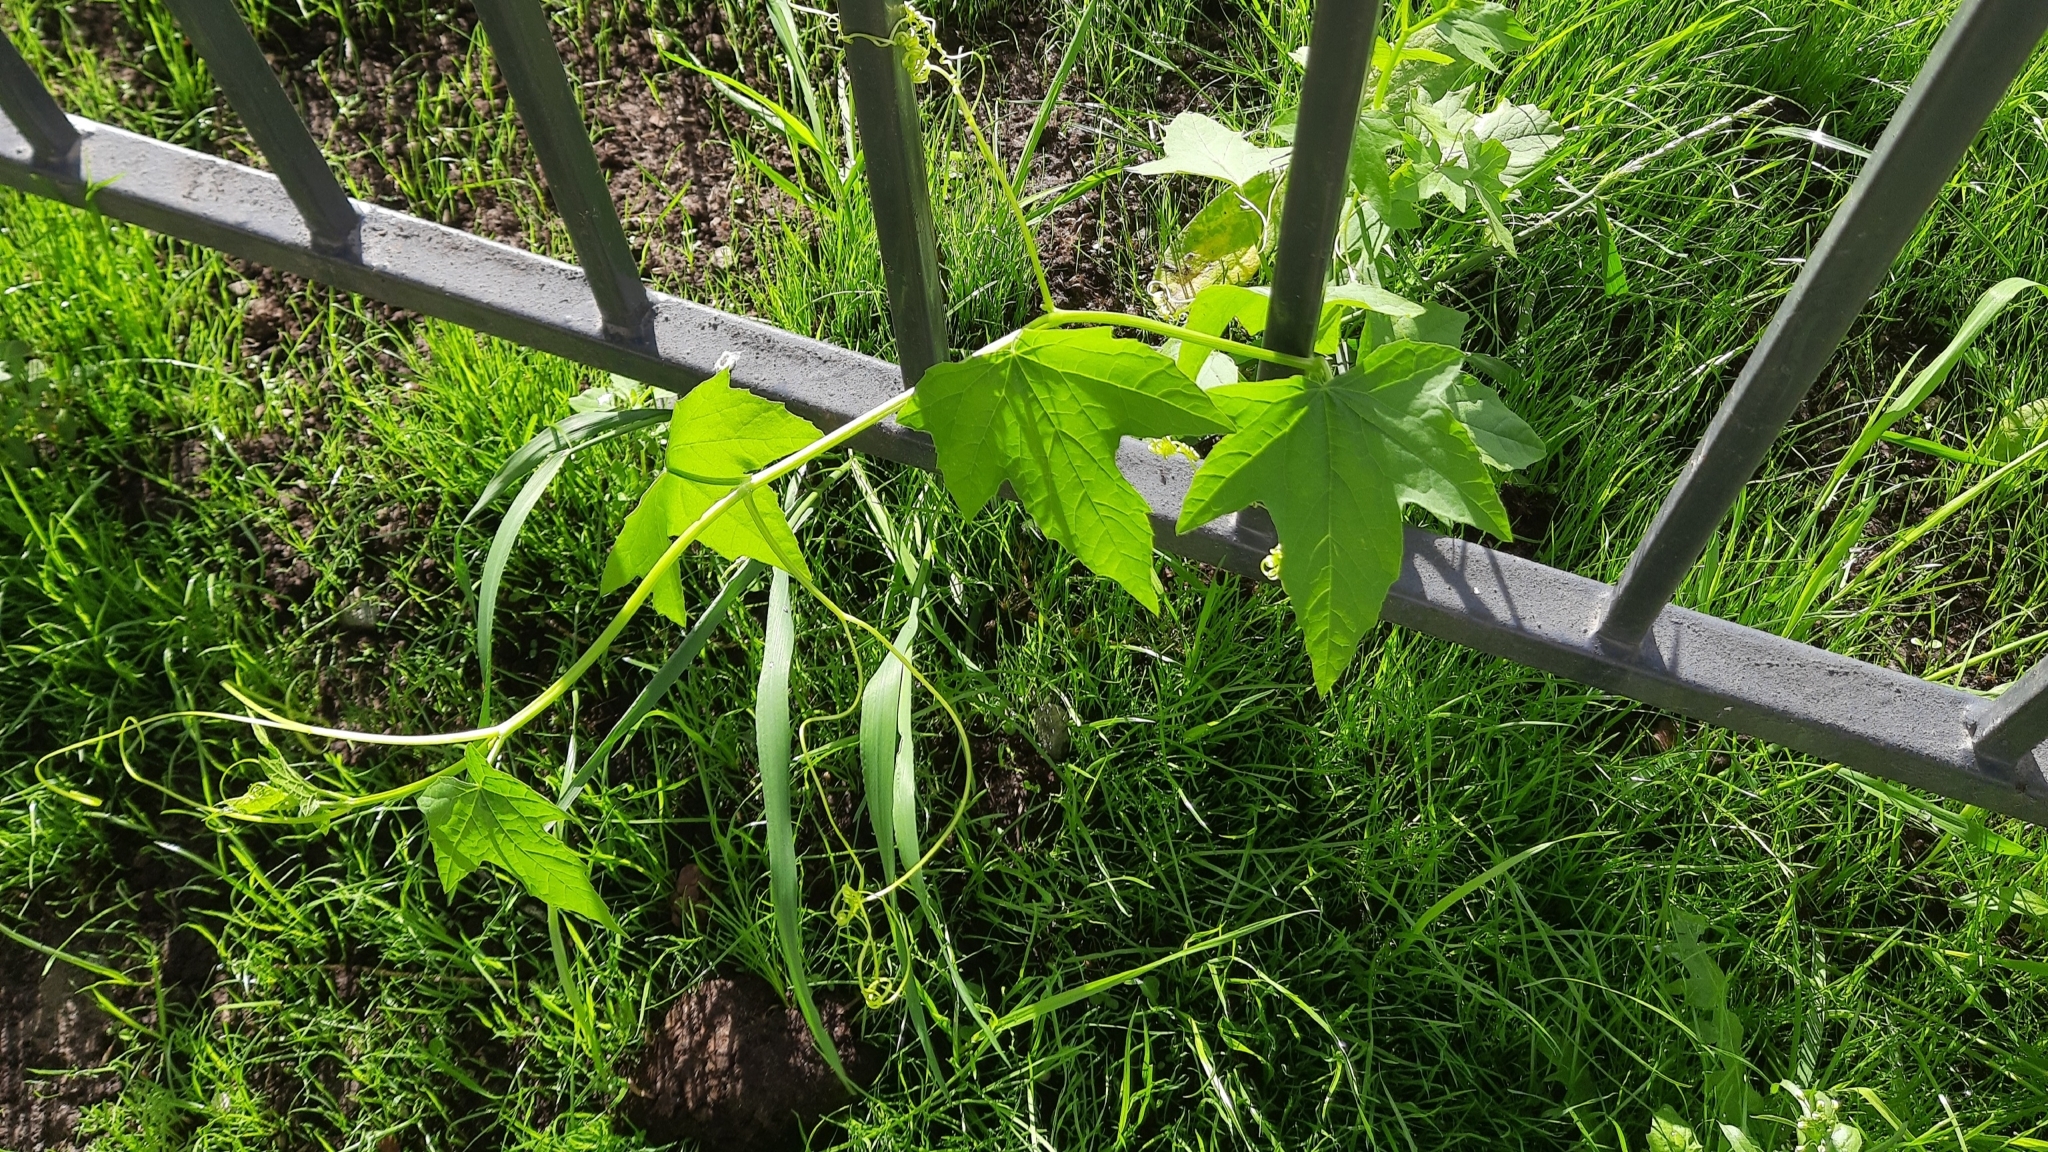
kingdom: Plantae
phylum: Tracheophyta
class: Magnoliopsida
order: Cucurbitales
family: Cucurbitaceae
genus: Echinocystis
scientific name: Echinocystis lobata
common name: Wild cucumber
